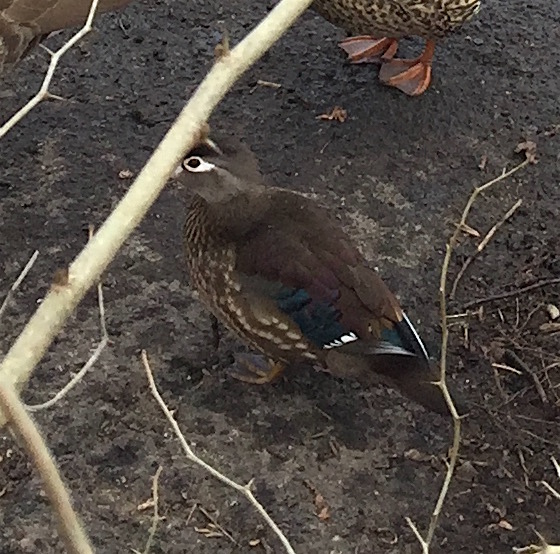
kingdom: Animalia
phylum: Chordata
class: Aves
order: Anseriformes
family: Anatidae
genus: Aix
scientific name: Aix sponsa
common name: Wood duck
